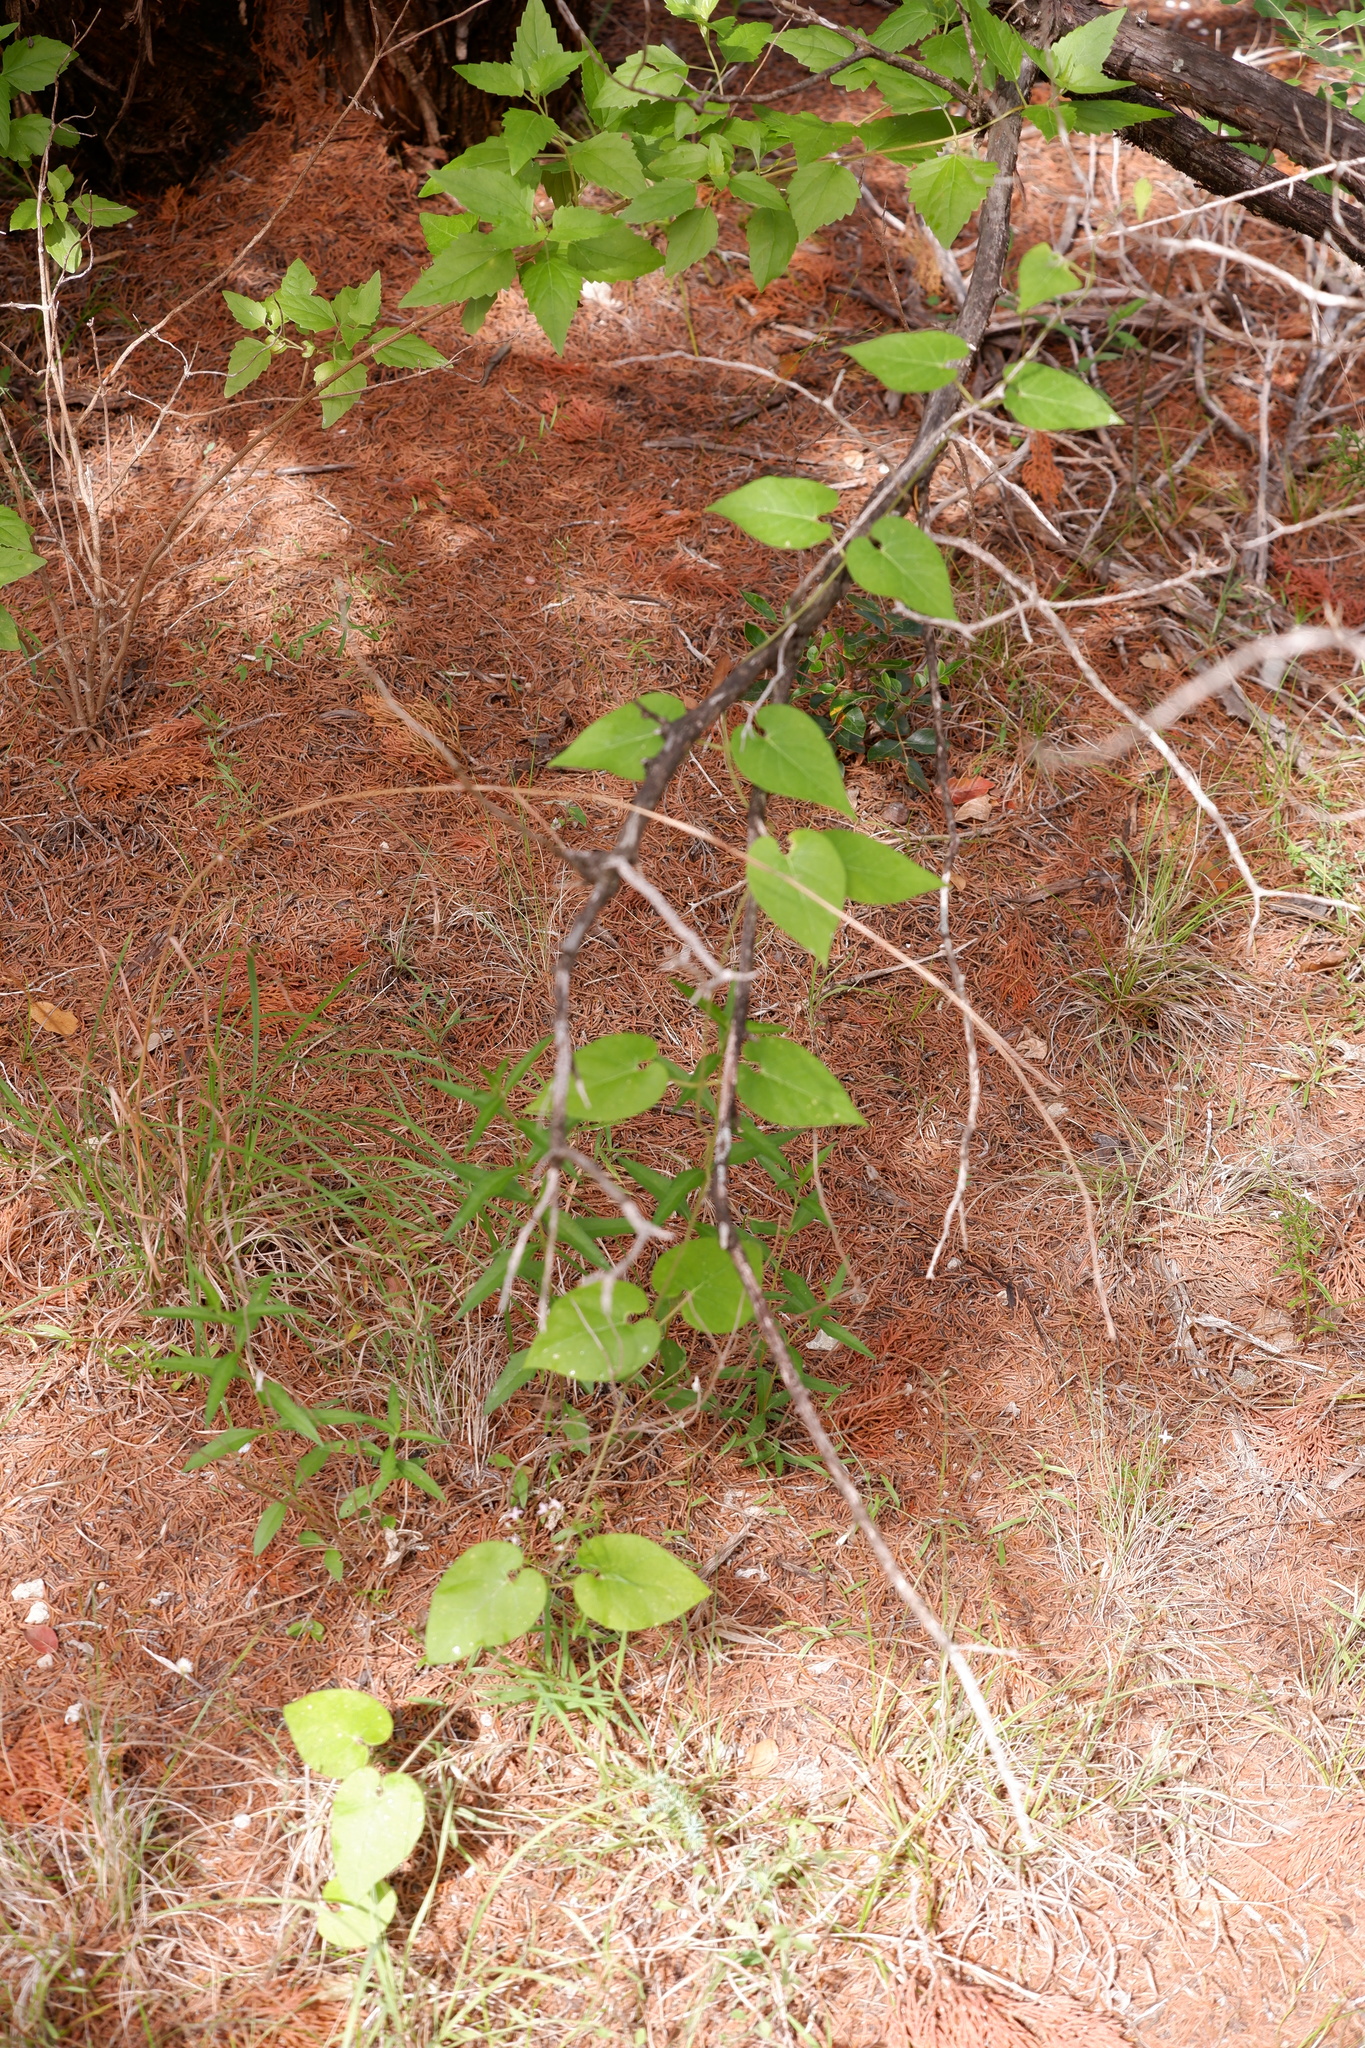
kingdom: Plantae
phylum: Tracheophyta
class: Magnoliopsida
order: Gentianales
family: Apocynaceae
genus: Dictyanthus
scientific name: Dictyanthus reticulatus
